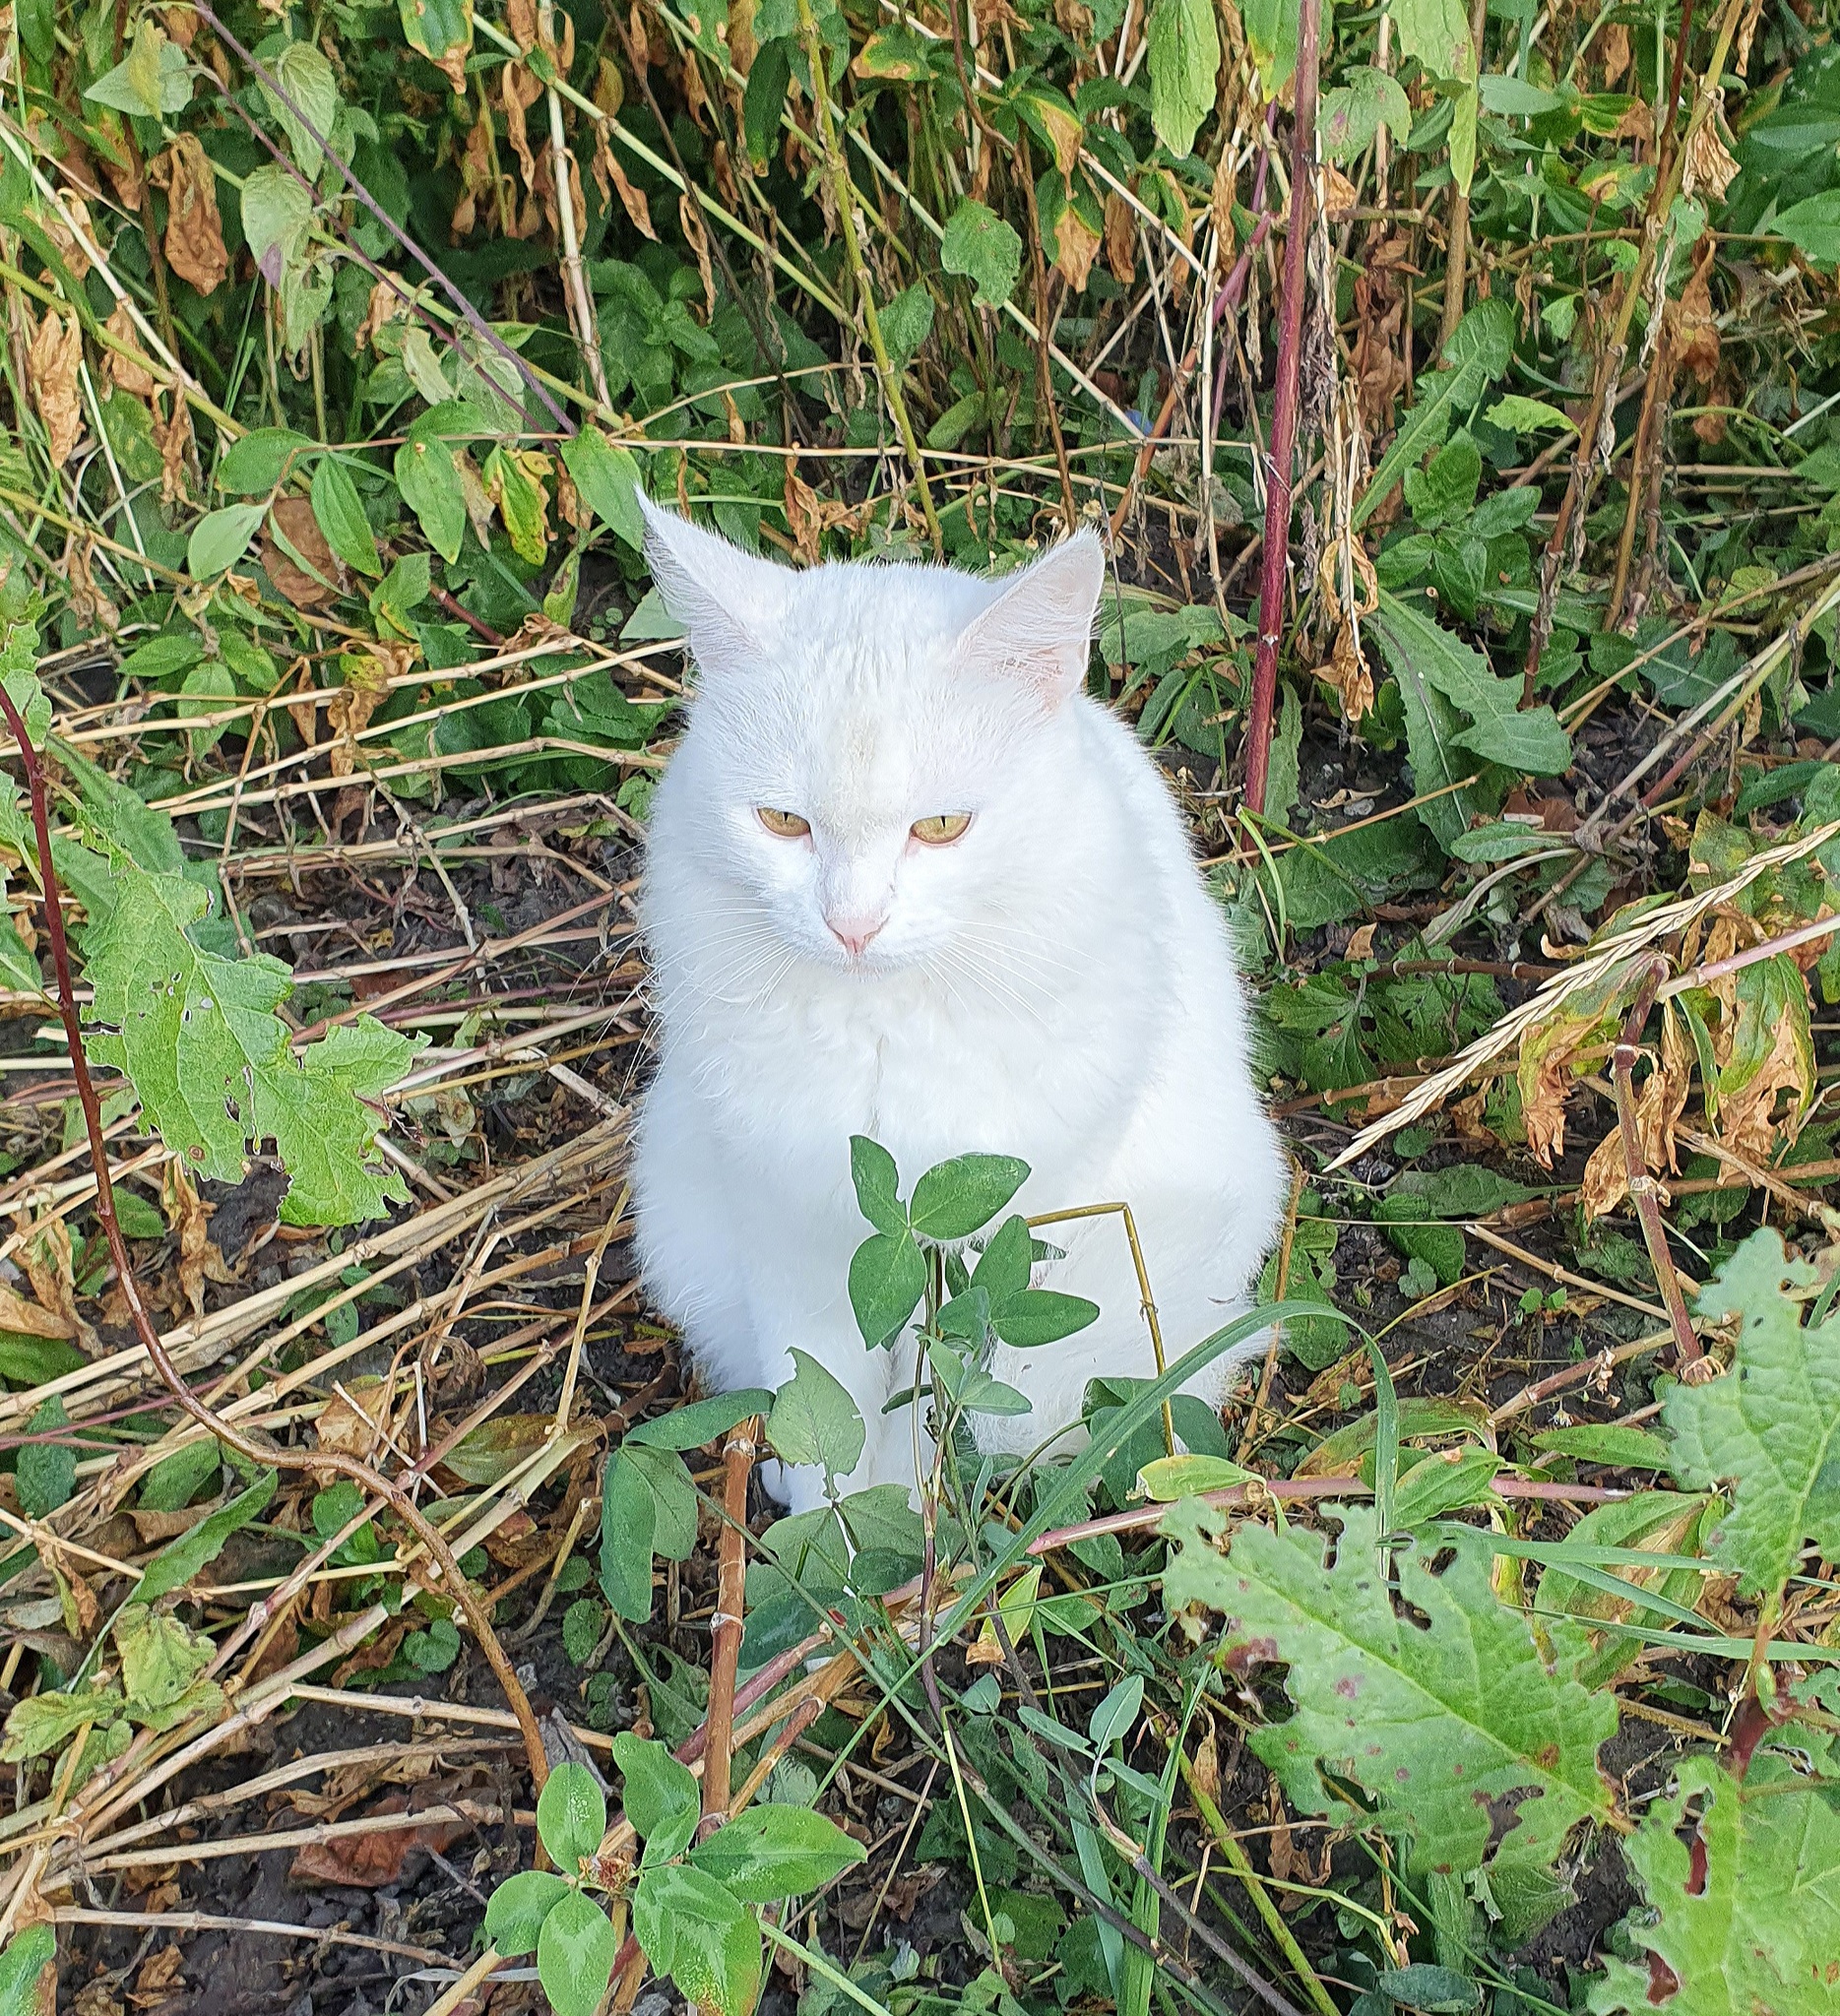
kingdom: Animalia
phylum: Chordata
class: Mammalia
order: Carnivora
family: Felidae
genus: Felis
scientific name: Felis catus
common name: Domestic cat
